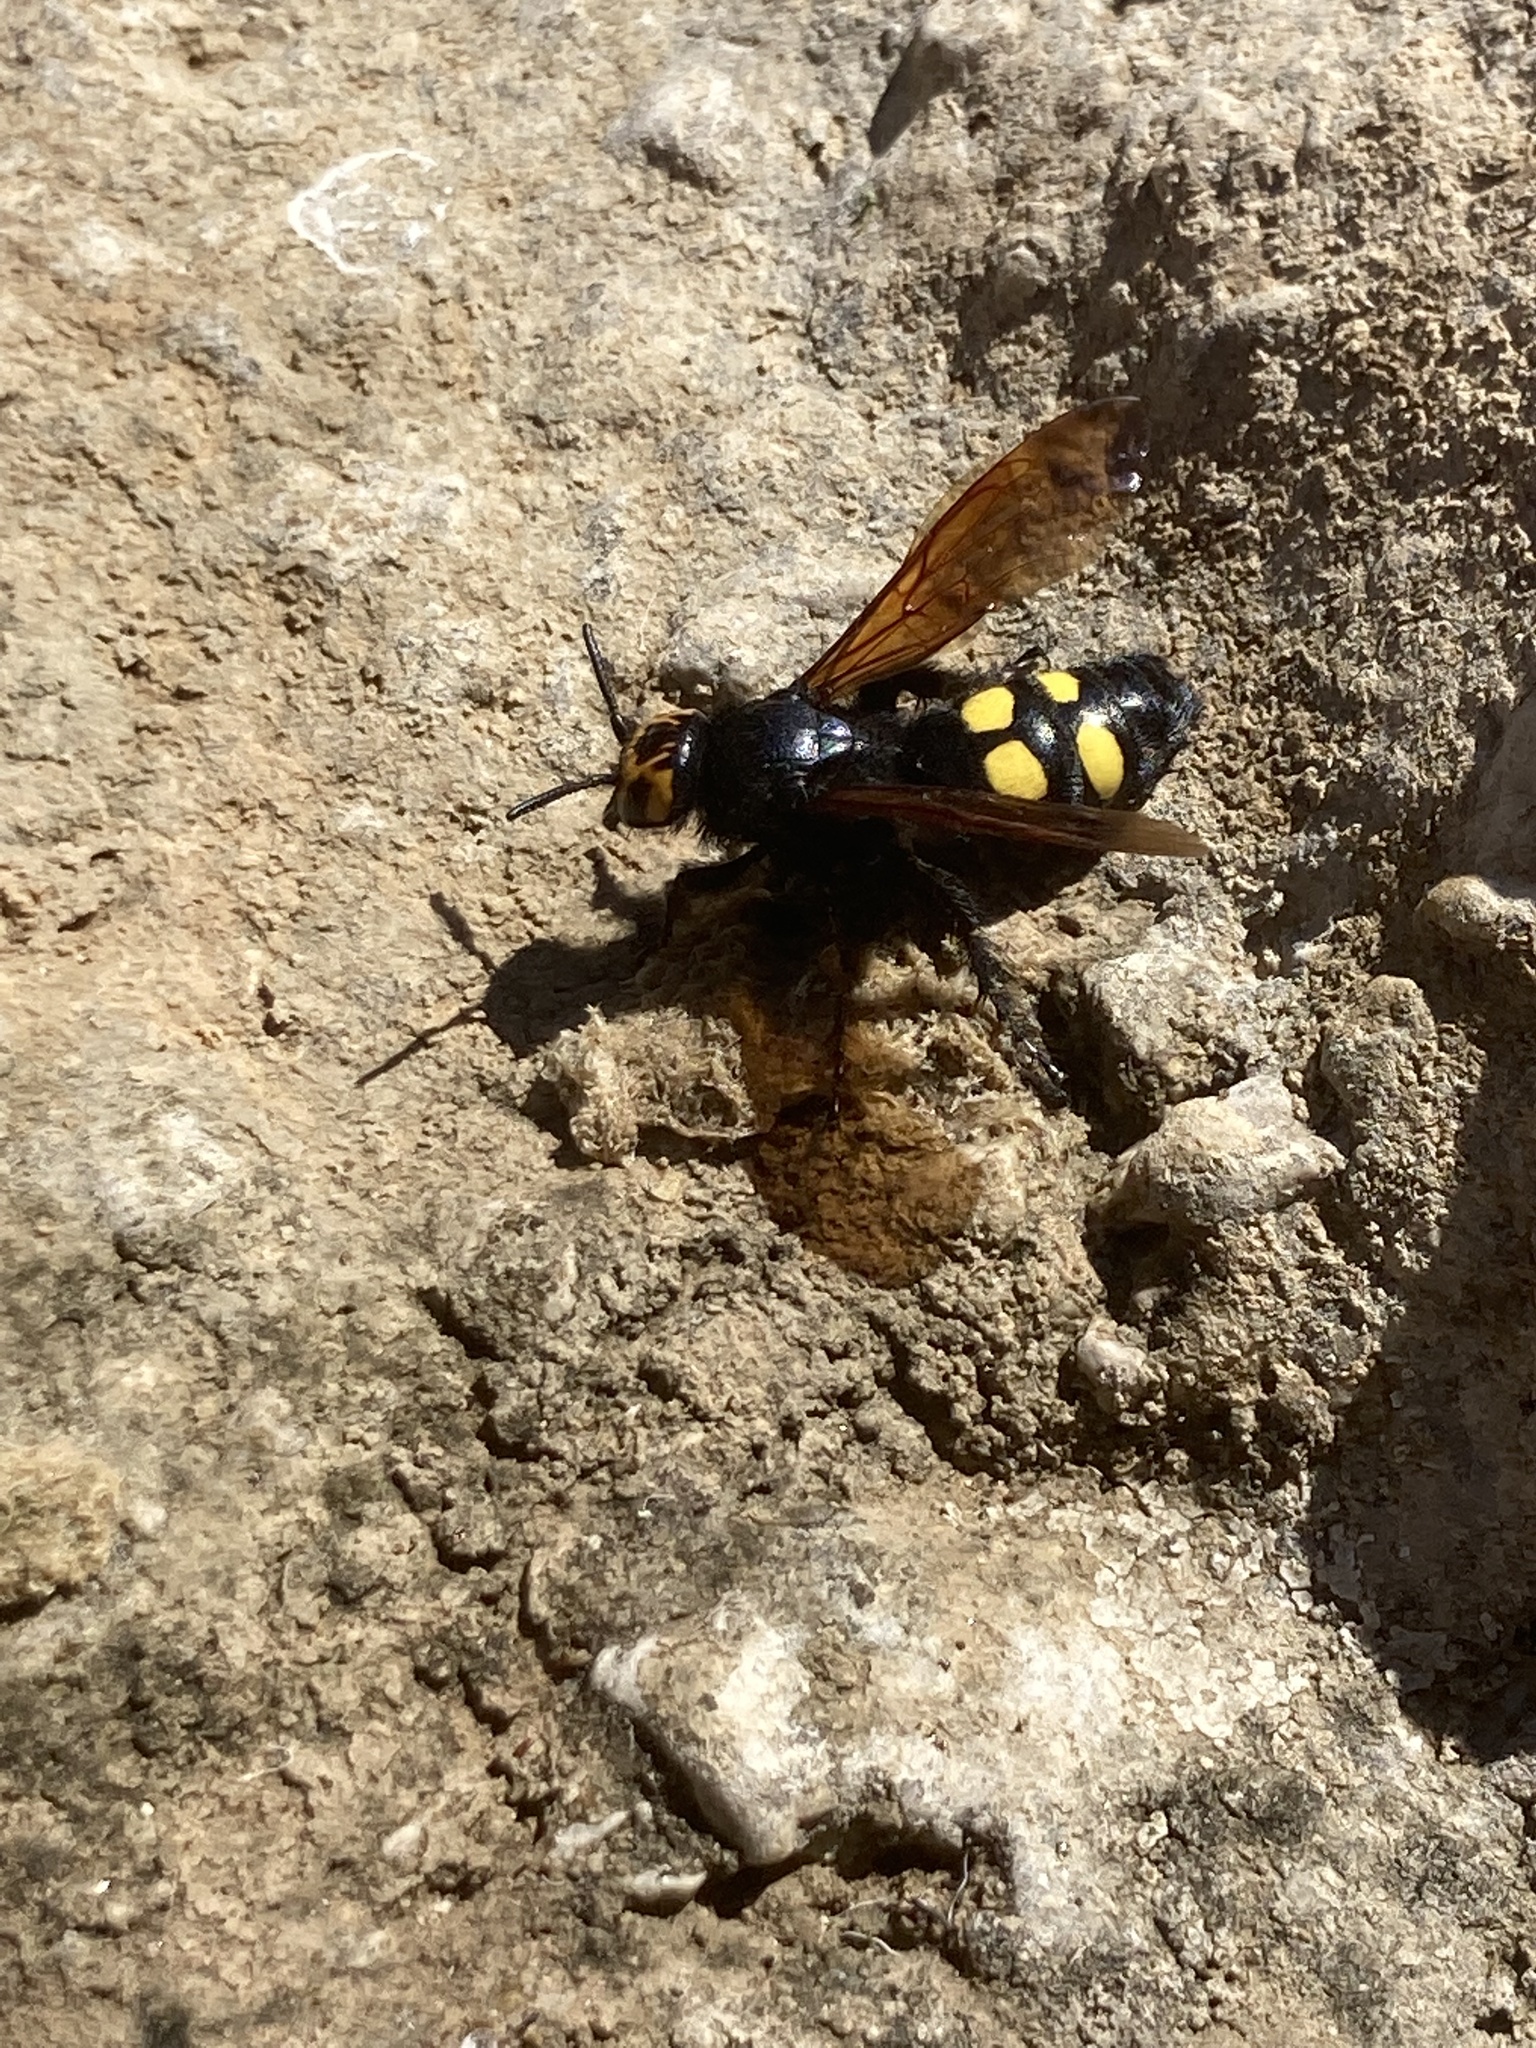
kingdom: Animalia
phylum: Arthropoda
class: Insecta
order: Hymenoptera
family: Scoliidae
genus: Megascolia
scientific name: Megascolia maculata
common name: Mammoth wasp
